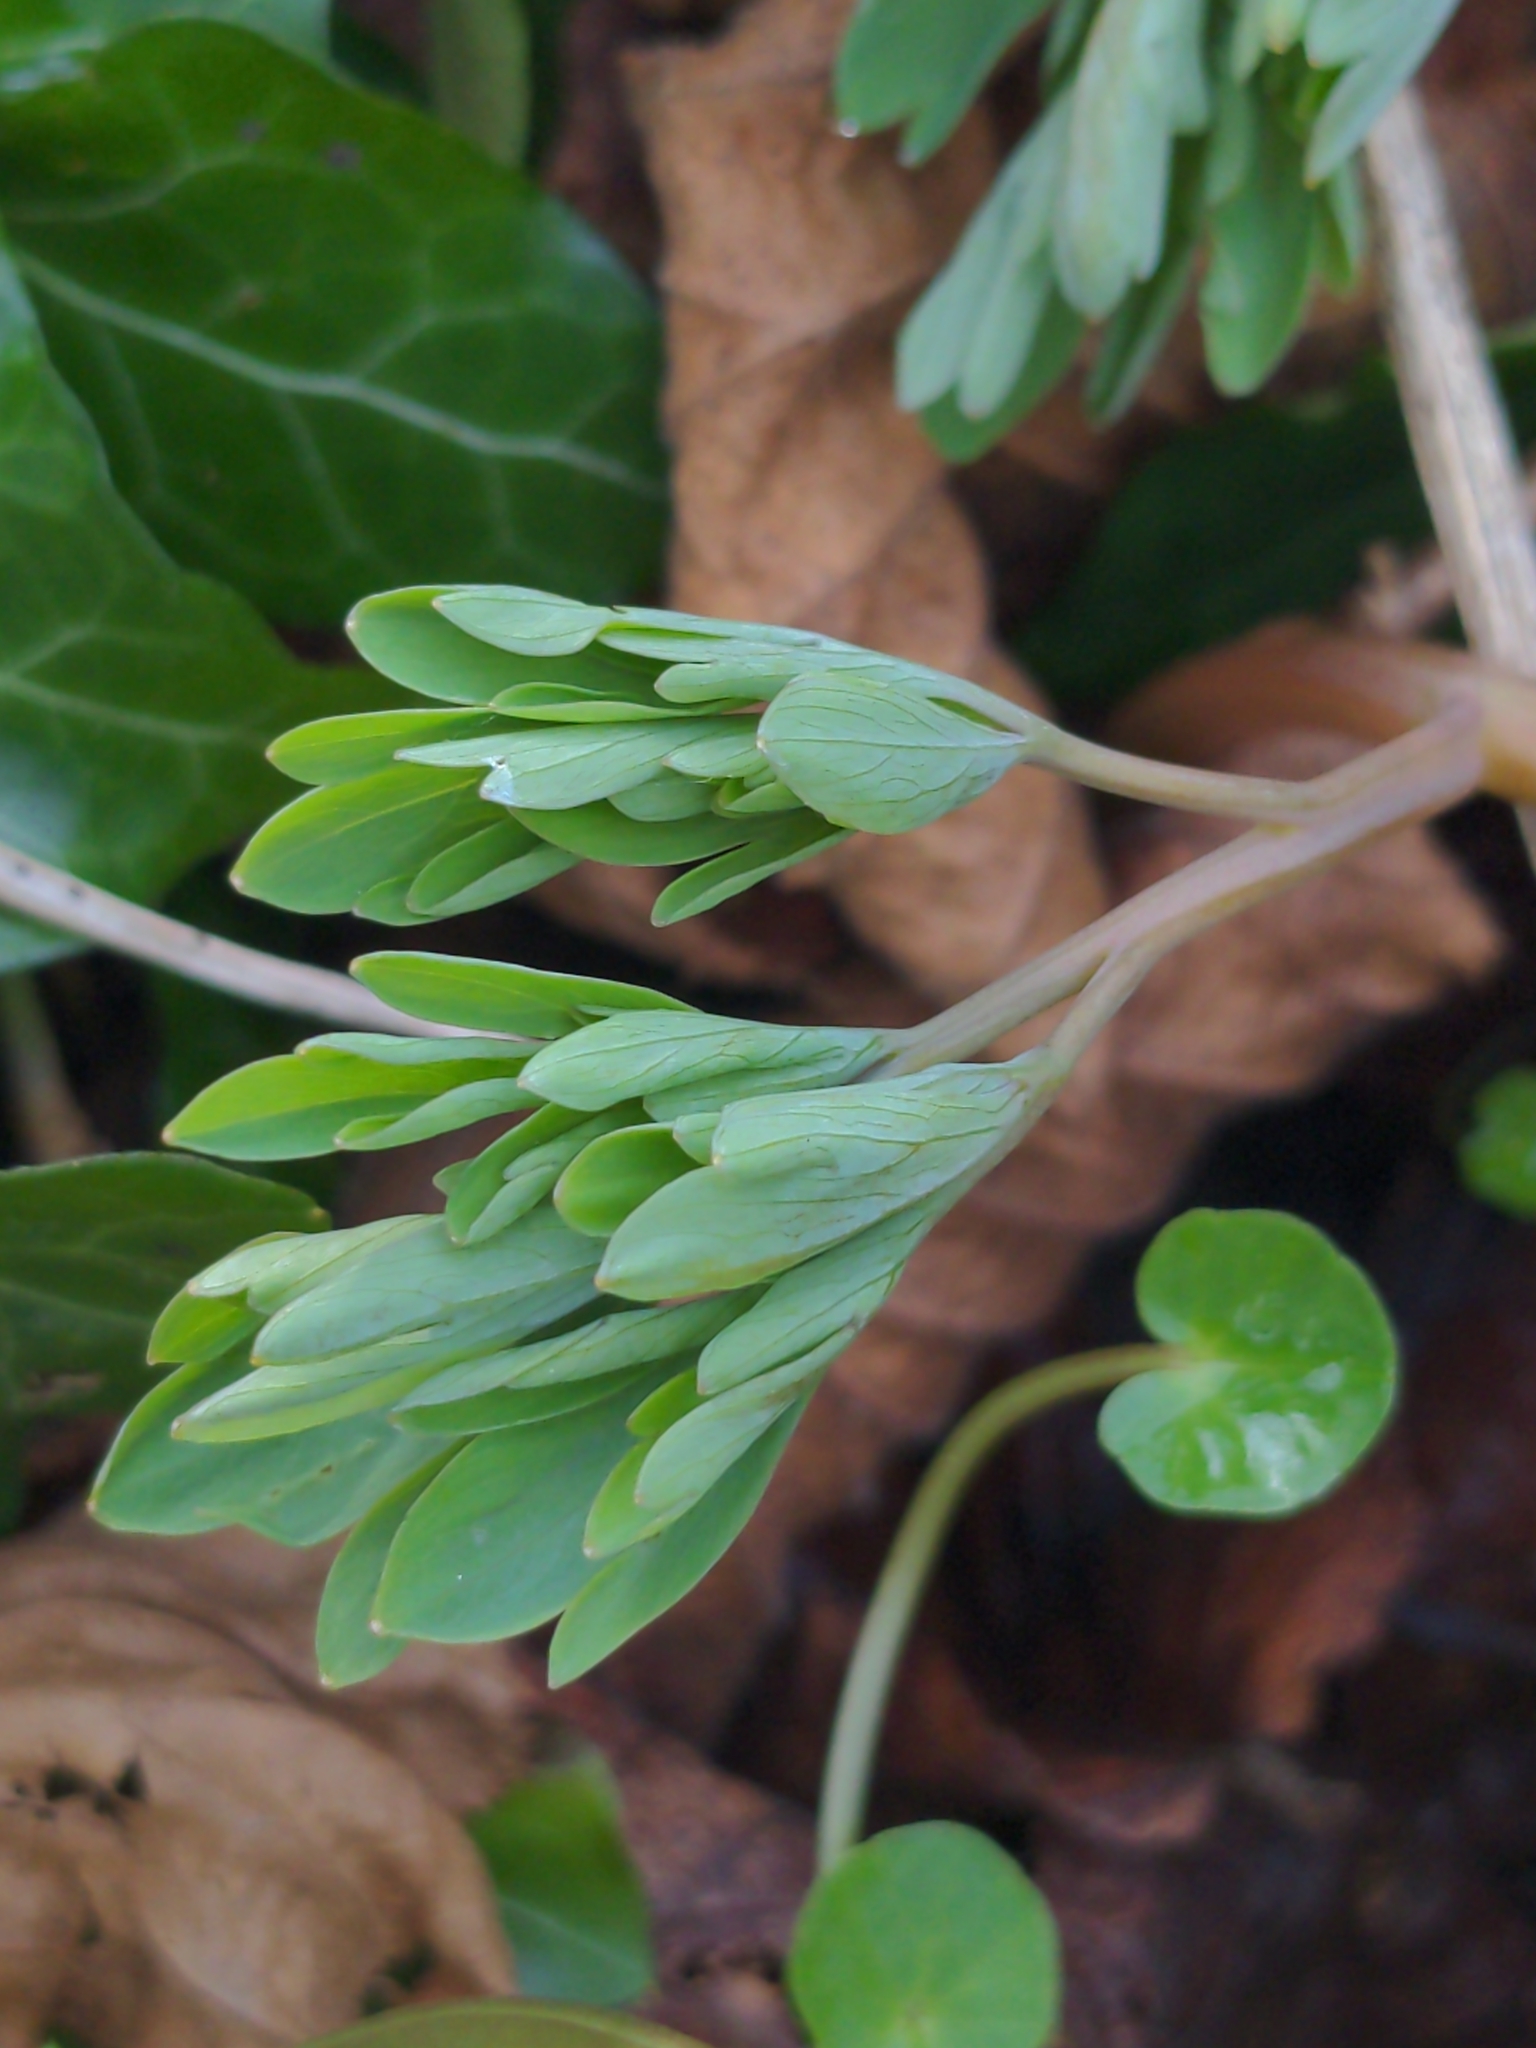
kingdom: Plantae
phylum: Tracheophyta
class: Magnoliopsida
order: Ranunculales
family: Papaveraceae
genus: Corydalis
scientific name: Corydalis cava
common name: Hollowroot
